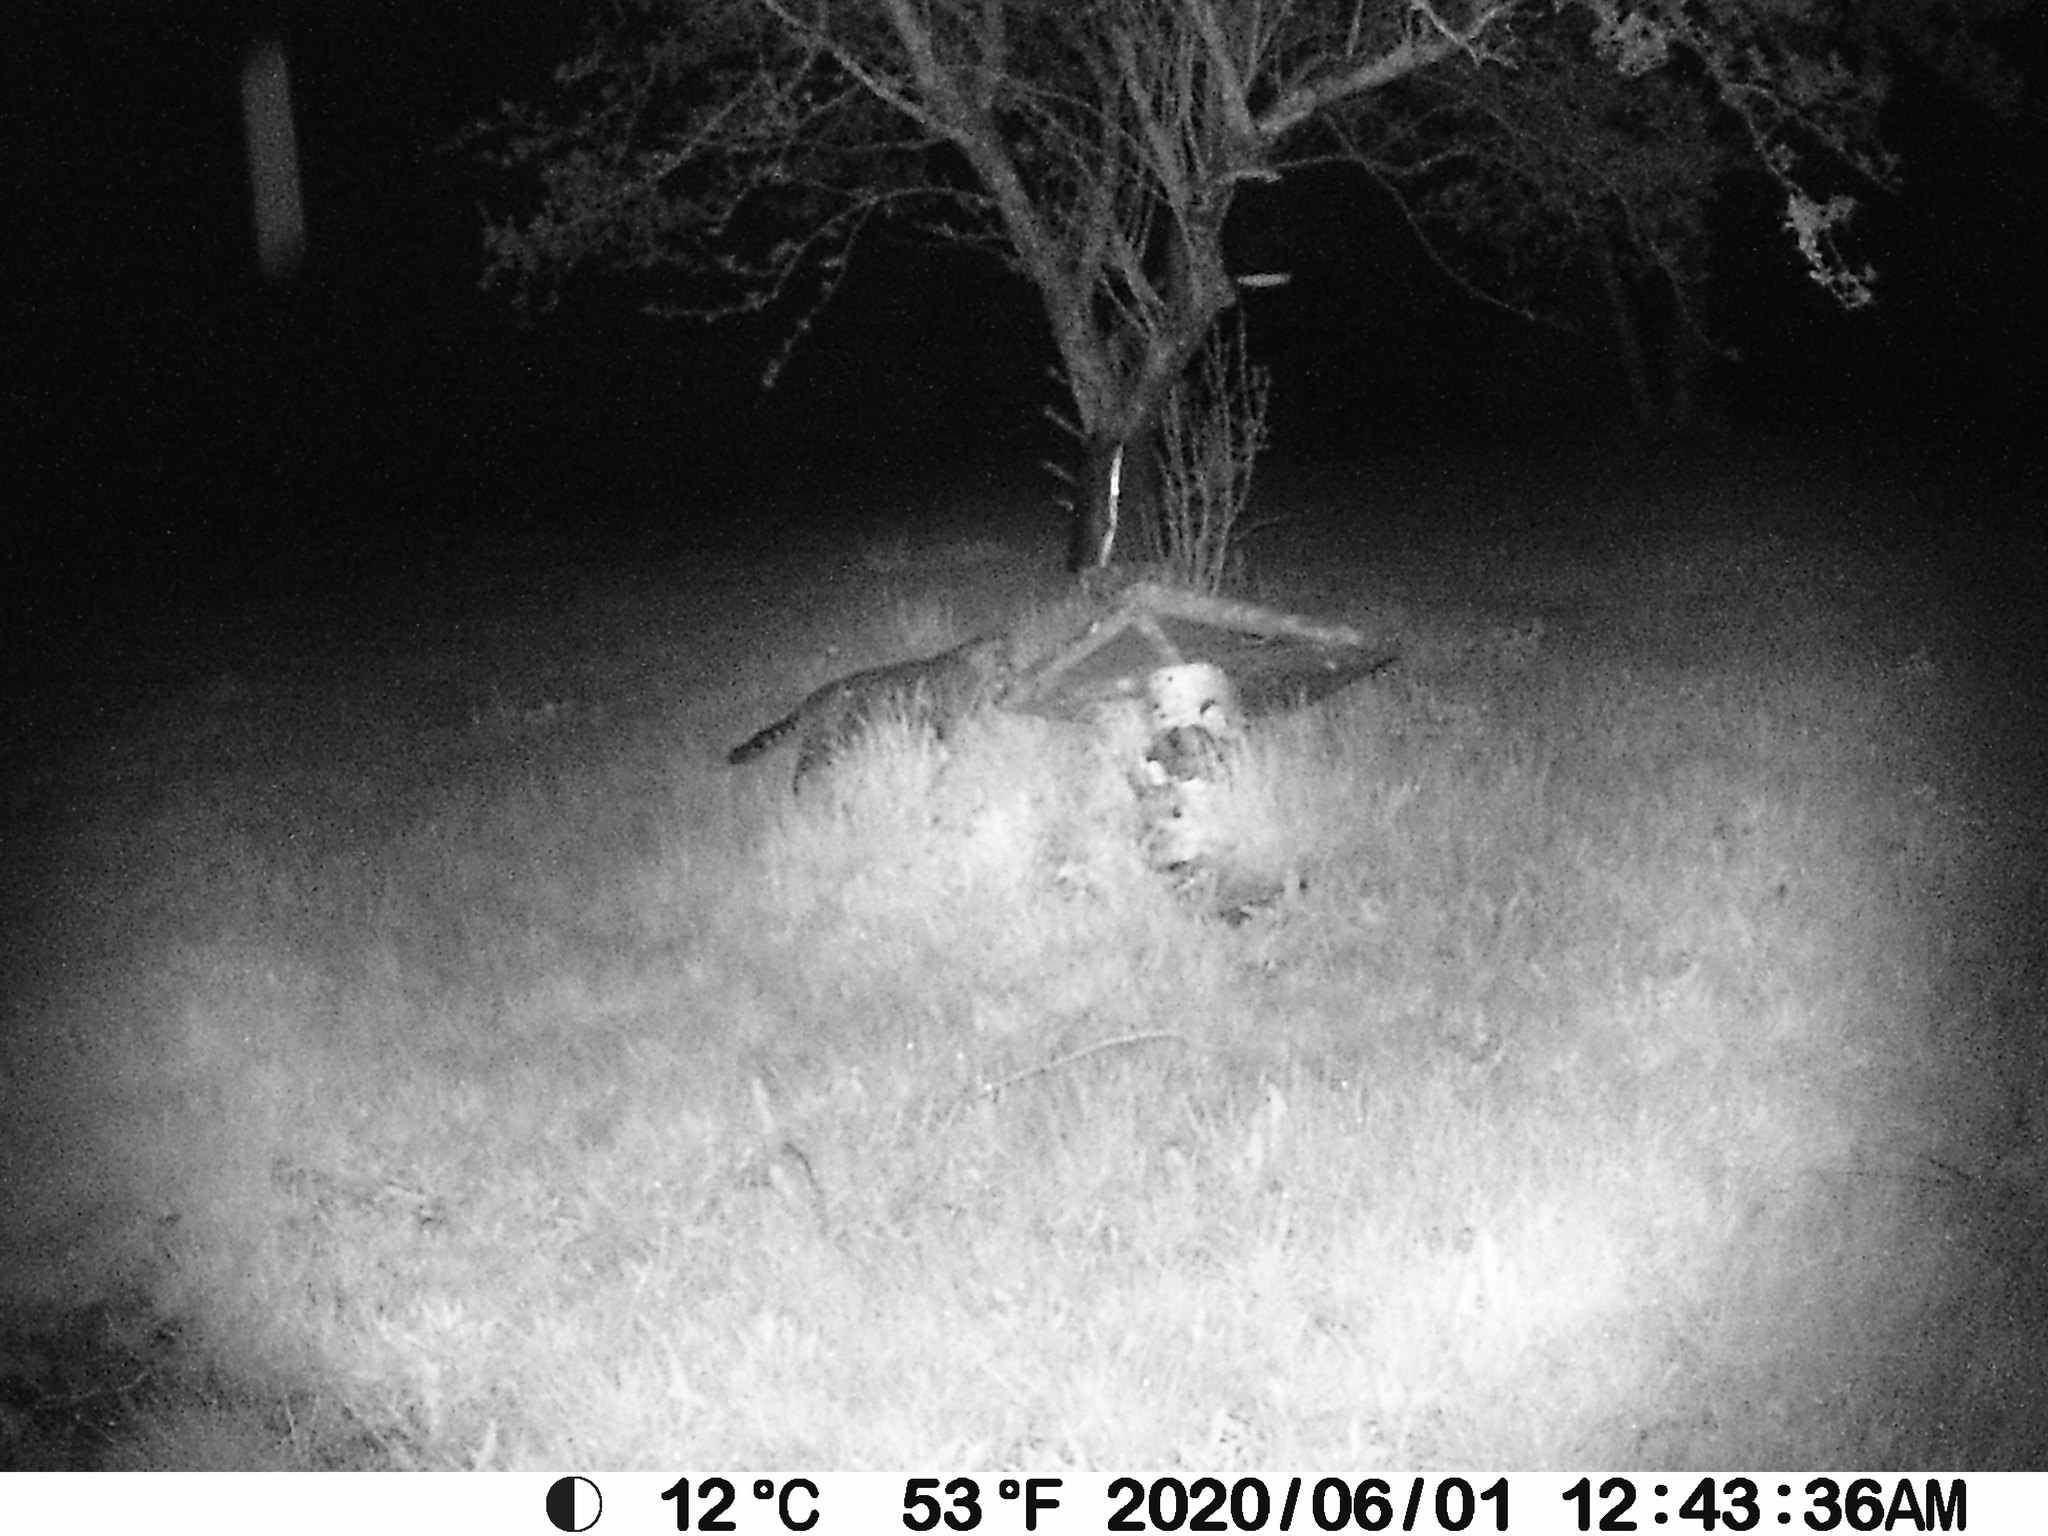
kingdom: Animalia
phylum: Chordata
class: Mammalia
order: Carnivora
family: Felidae
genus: Felis
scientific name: Felis catus
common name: Domestic cat
